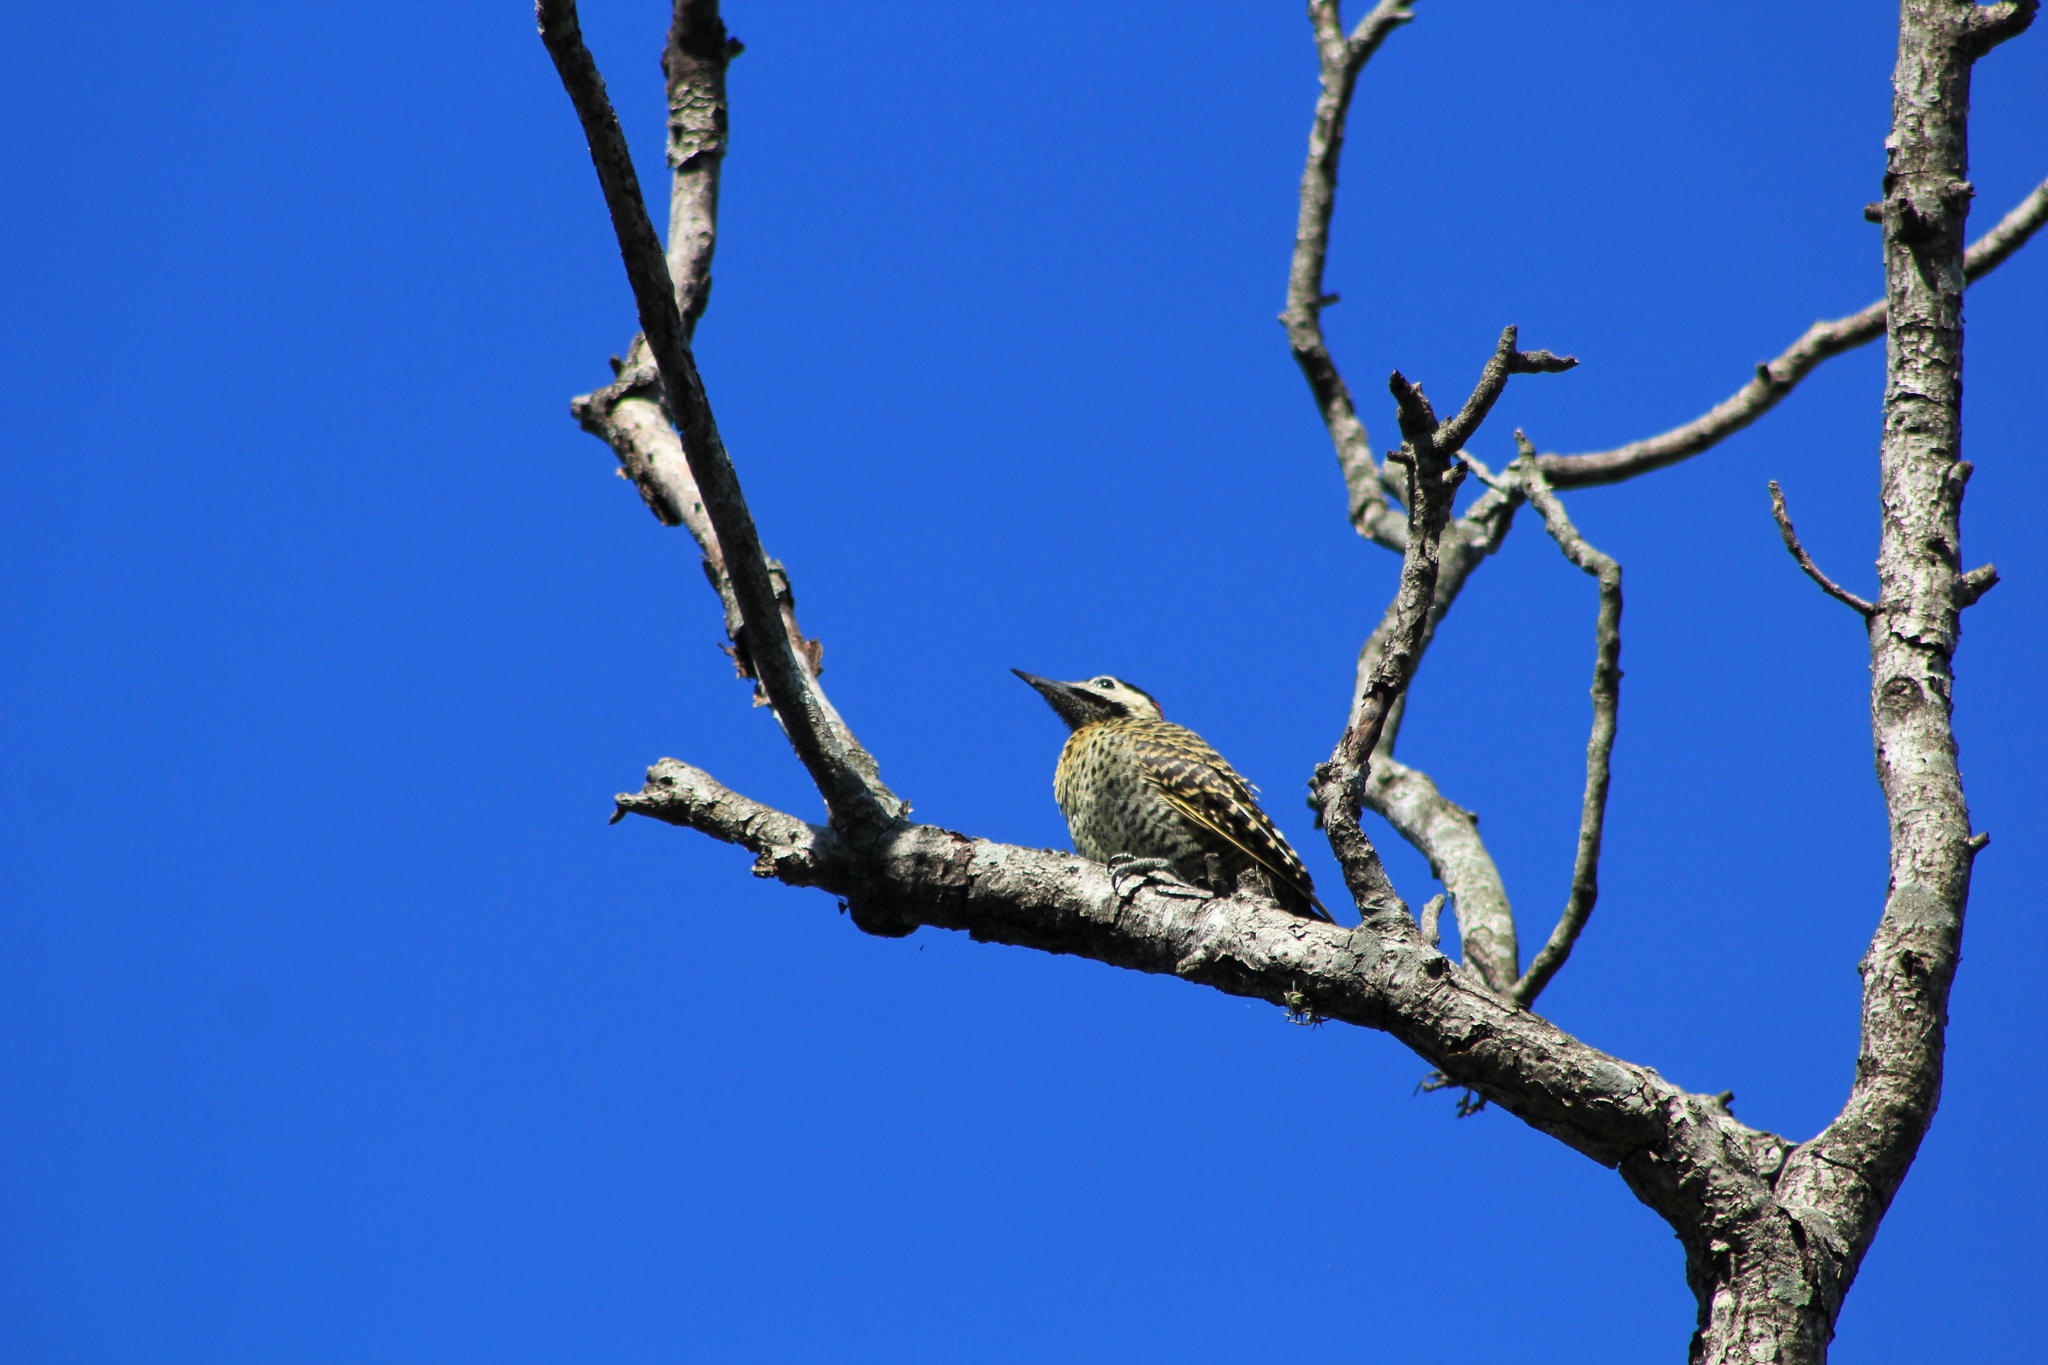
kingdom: Animalia
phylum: Chordata
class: Aves
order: Piciformes
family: Picidae
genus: Colaptes
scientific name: Colaptes melanochloros
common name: Green-barred woodpecker
